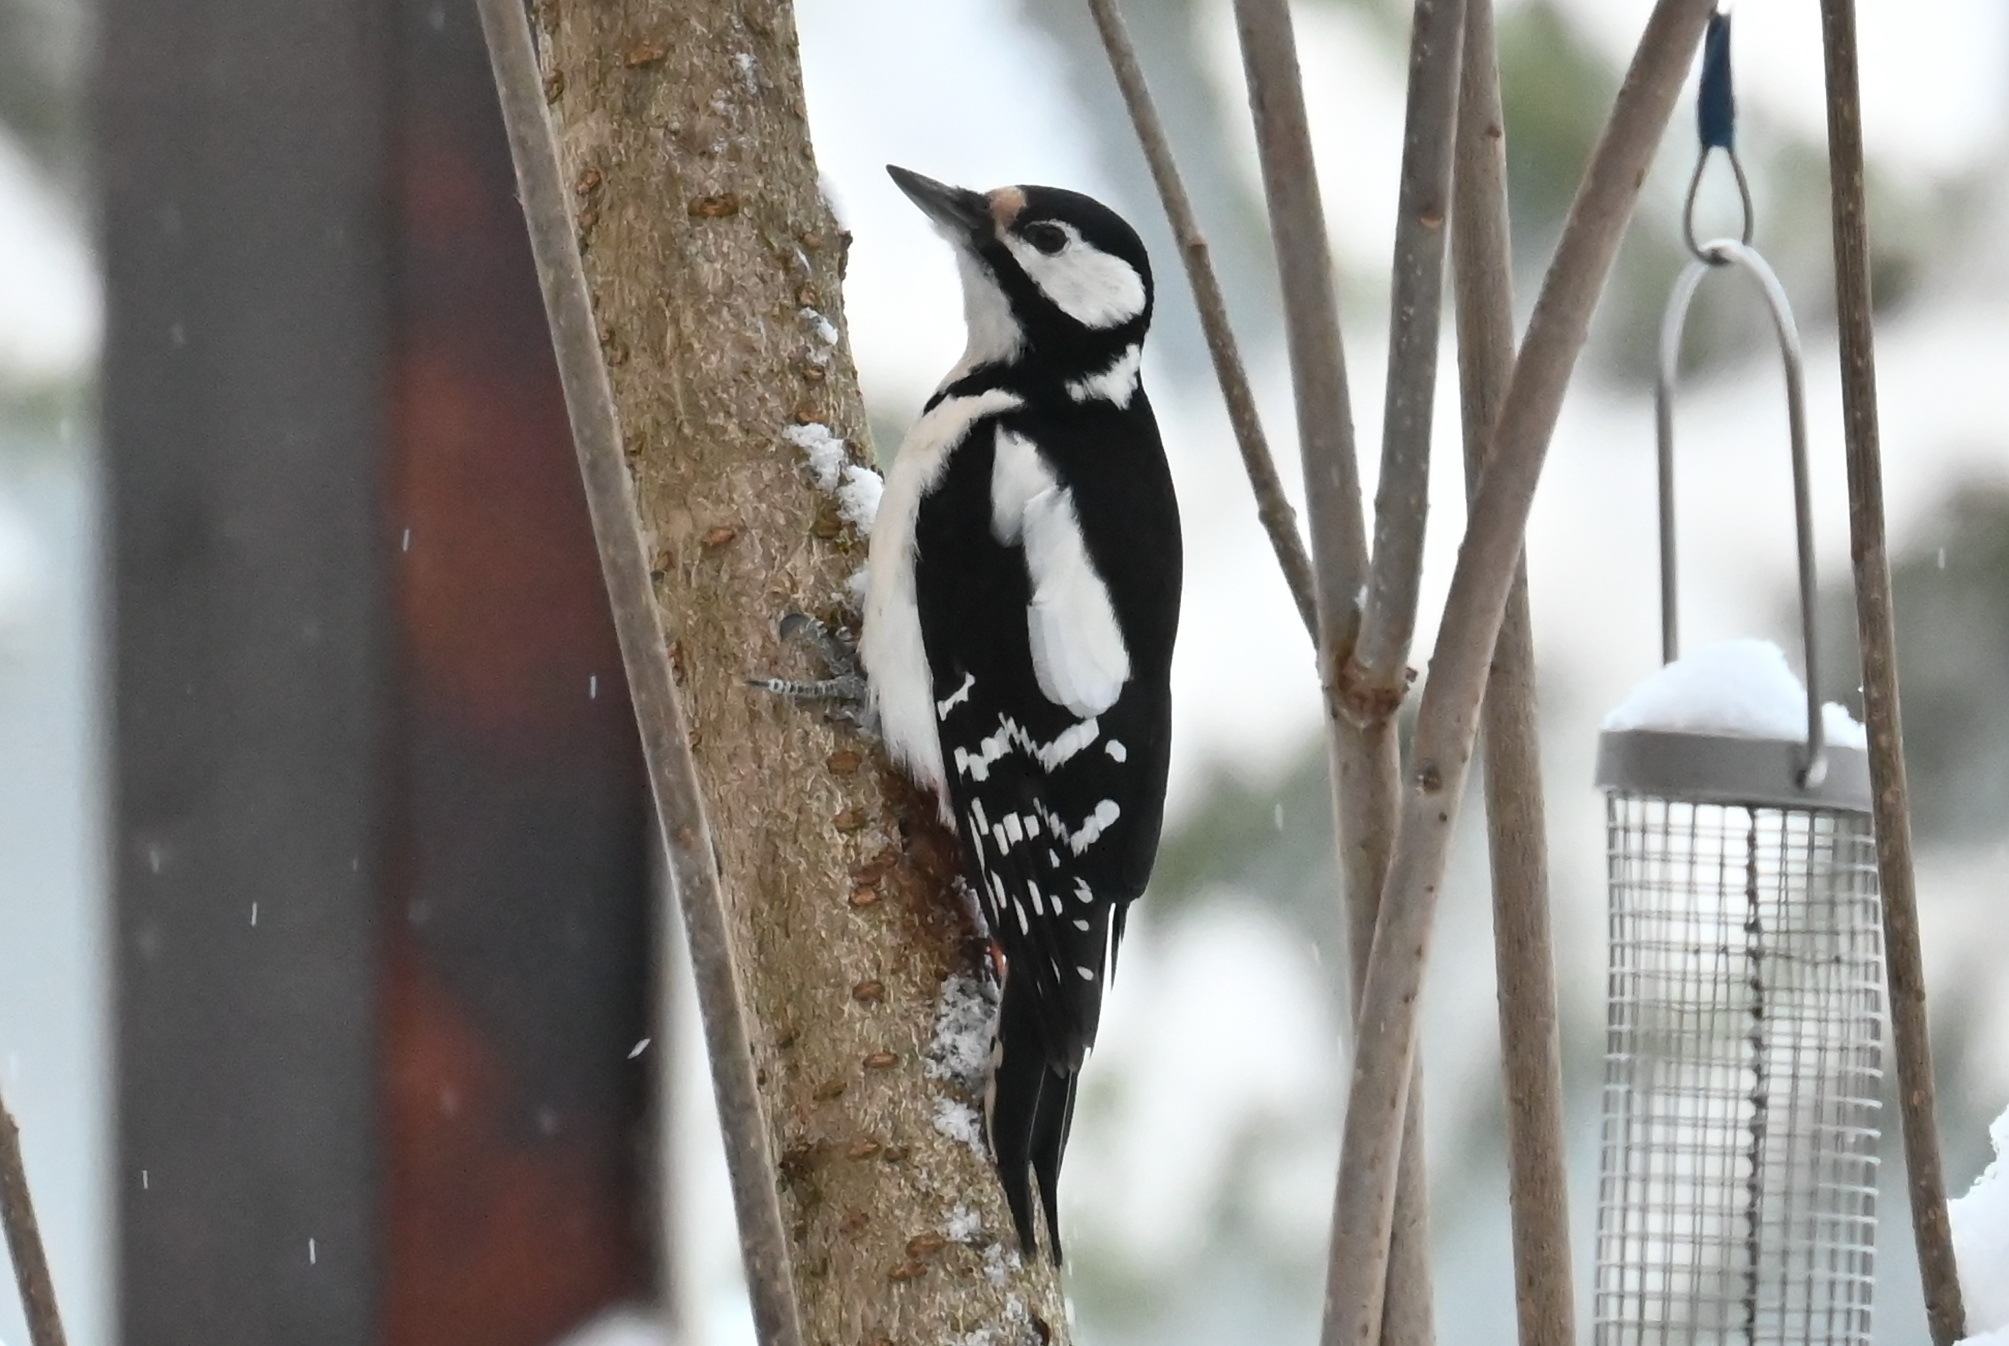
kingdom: Animalia
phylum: Chordata
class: Aves
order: Piciformes
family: Picidae
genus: Dendrocopos
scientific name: Dendrocopos major
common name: Great spotted woodpecker
